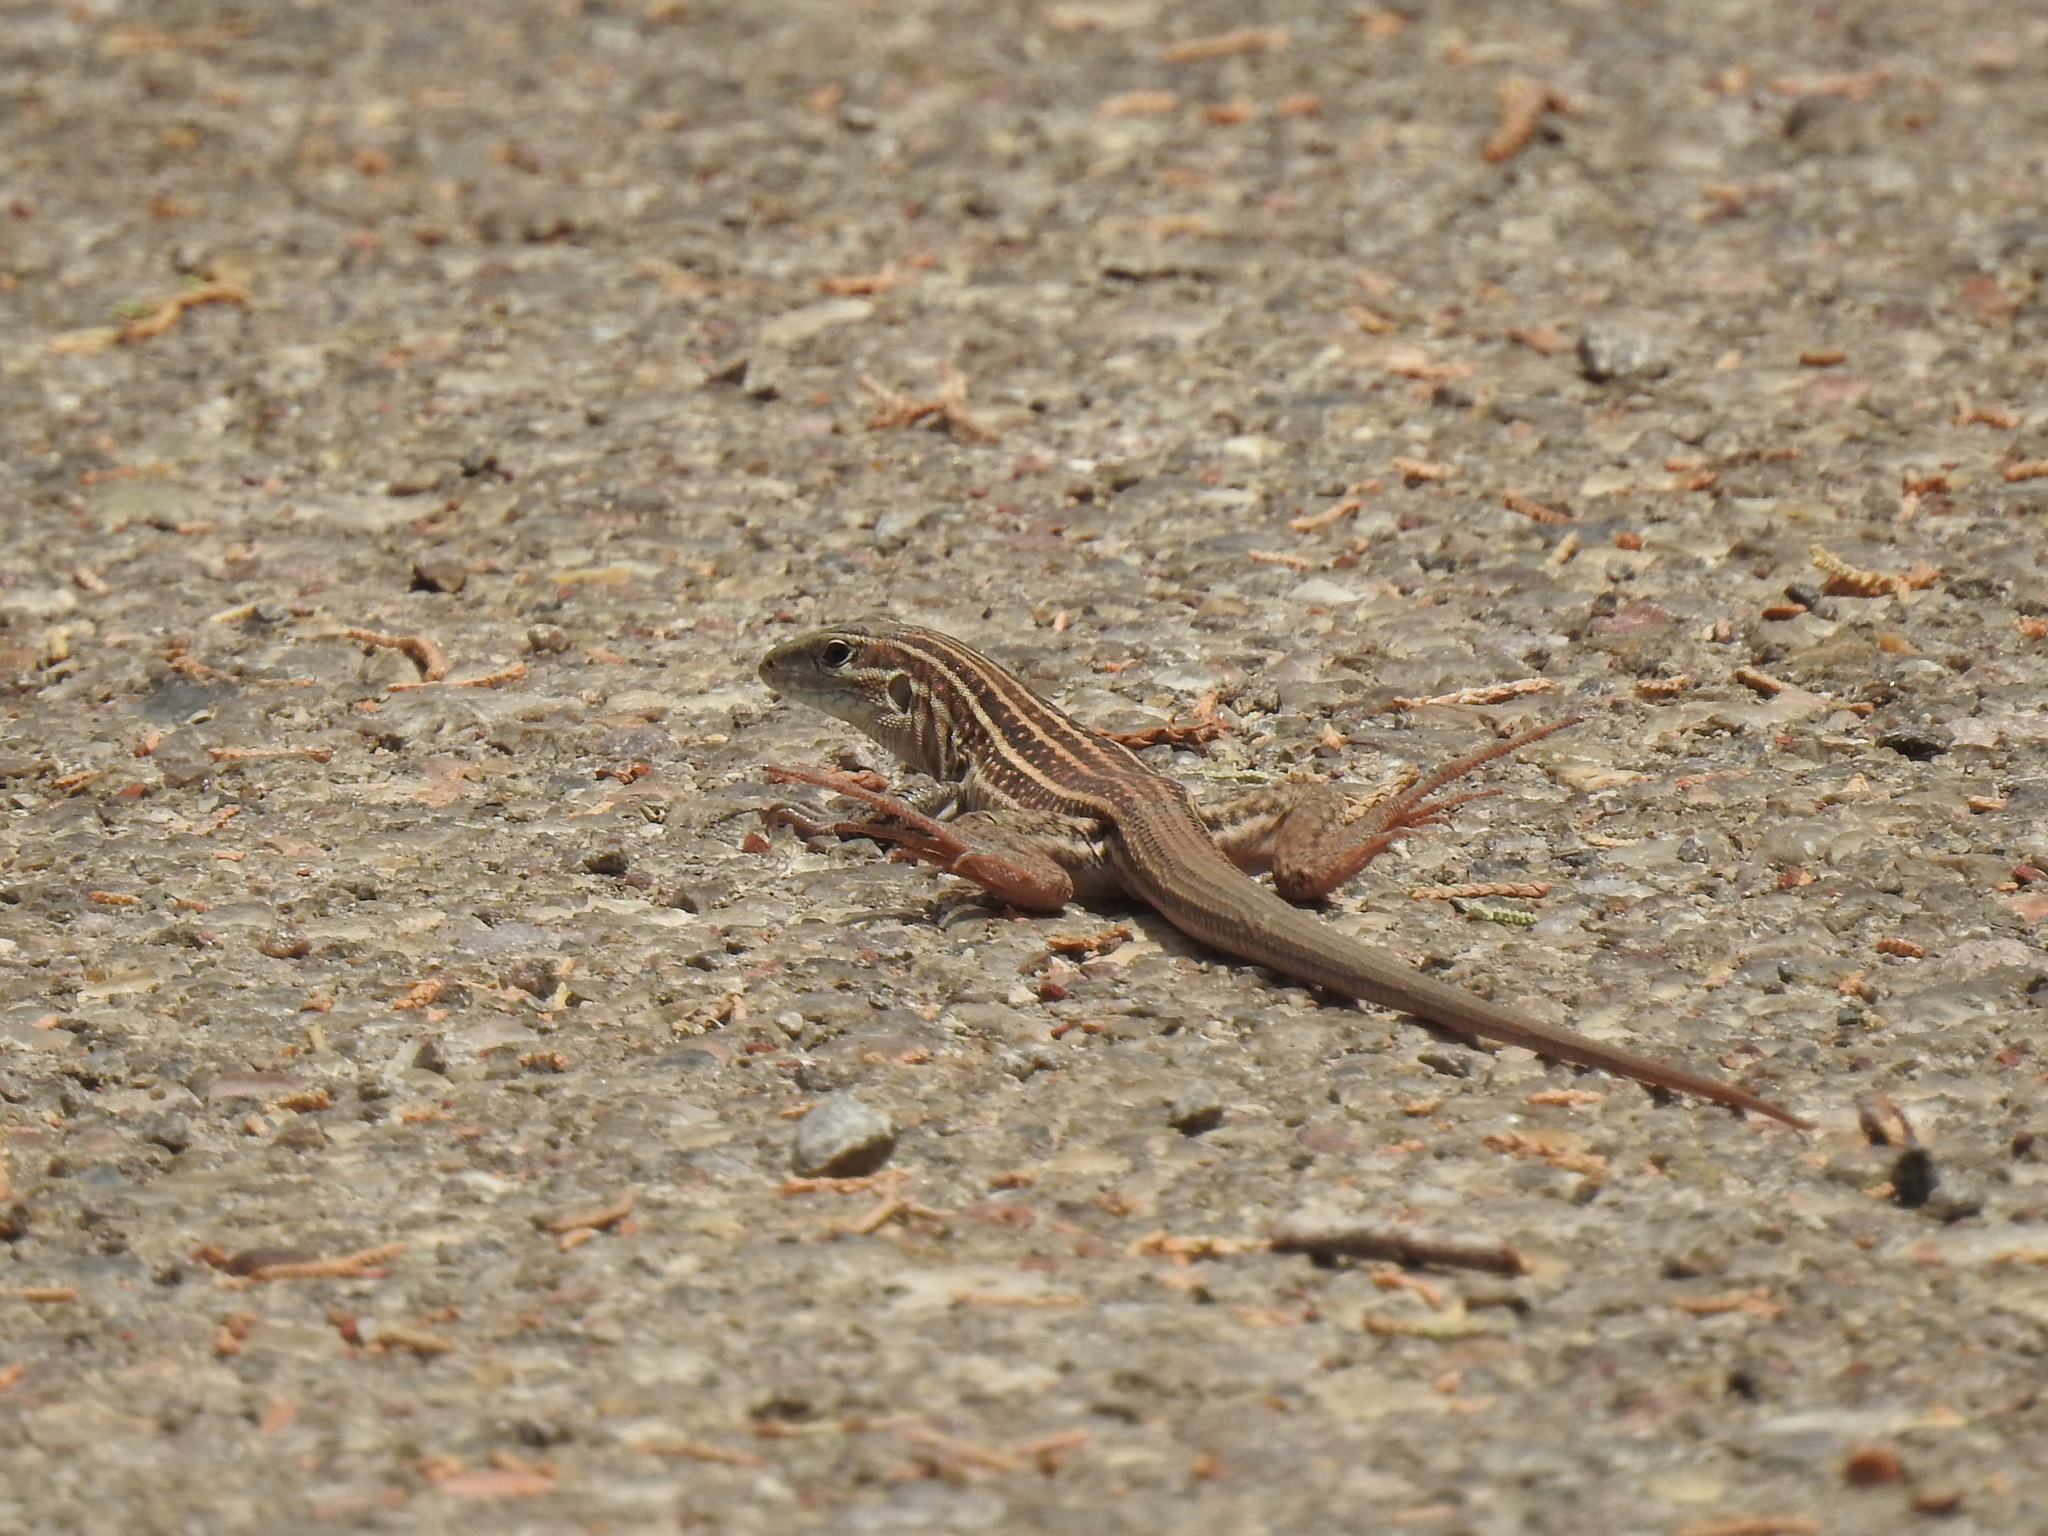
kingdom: Animalia
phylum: Chordata
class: Squamata
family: Teiidae
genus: Aspidoscelis
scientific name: Aspidoscelis exsanguis
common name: Chihuahuan spotted whiptail
